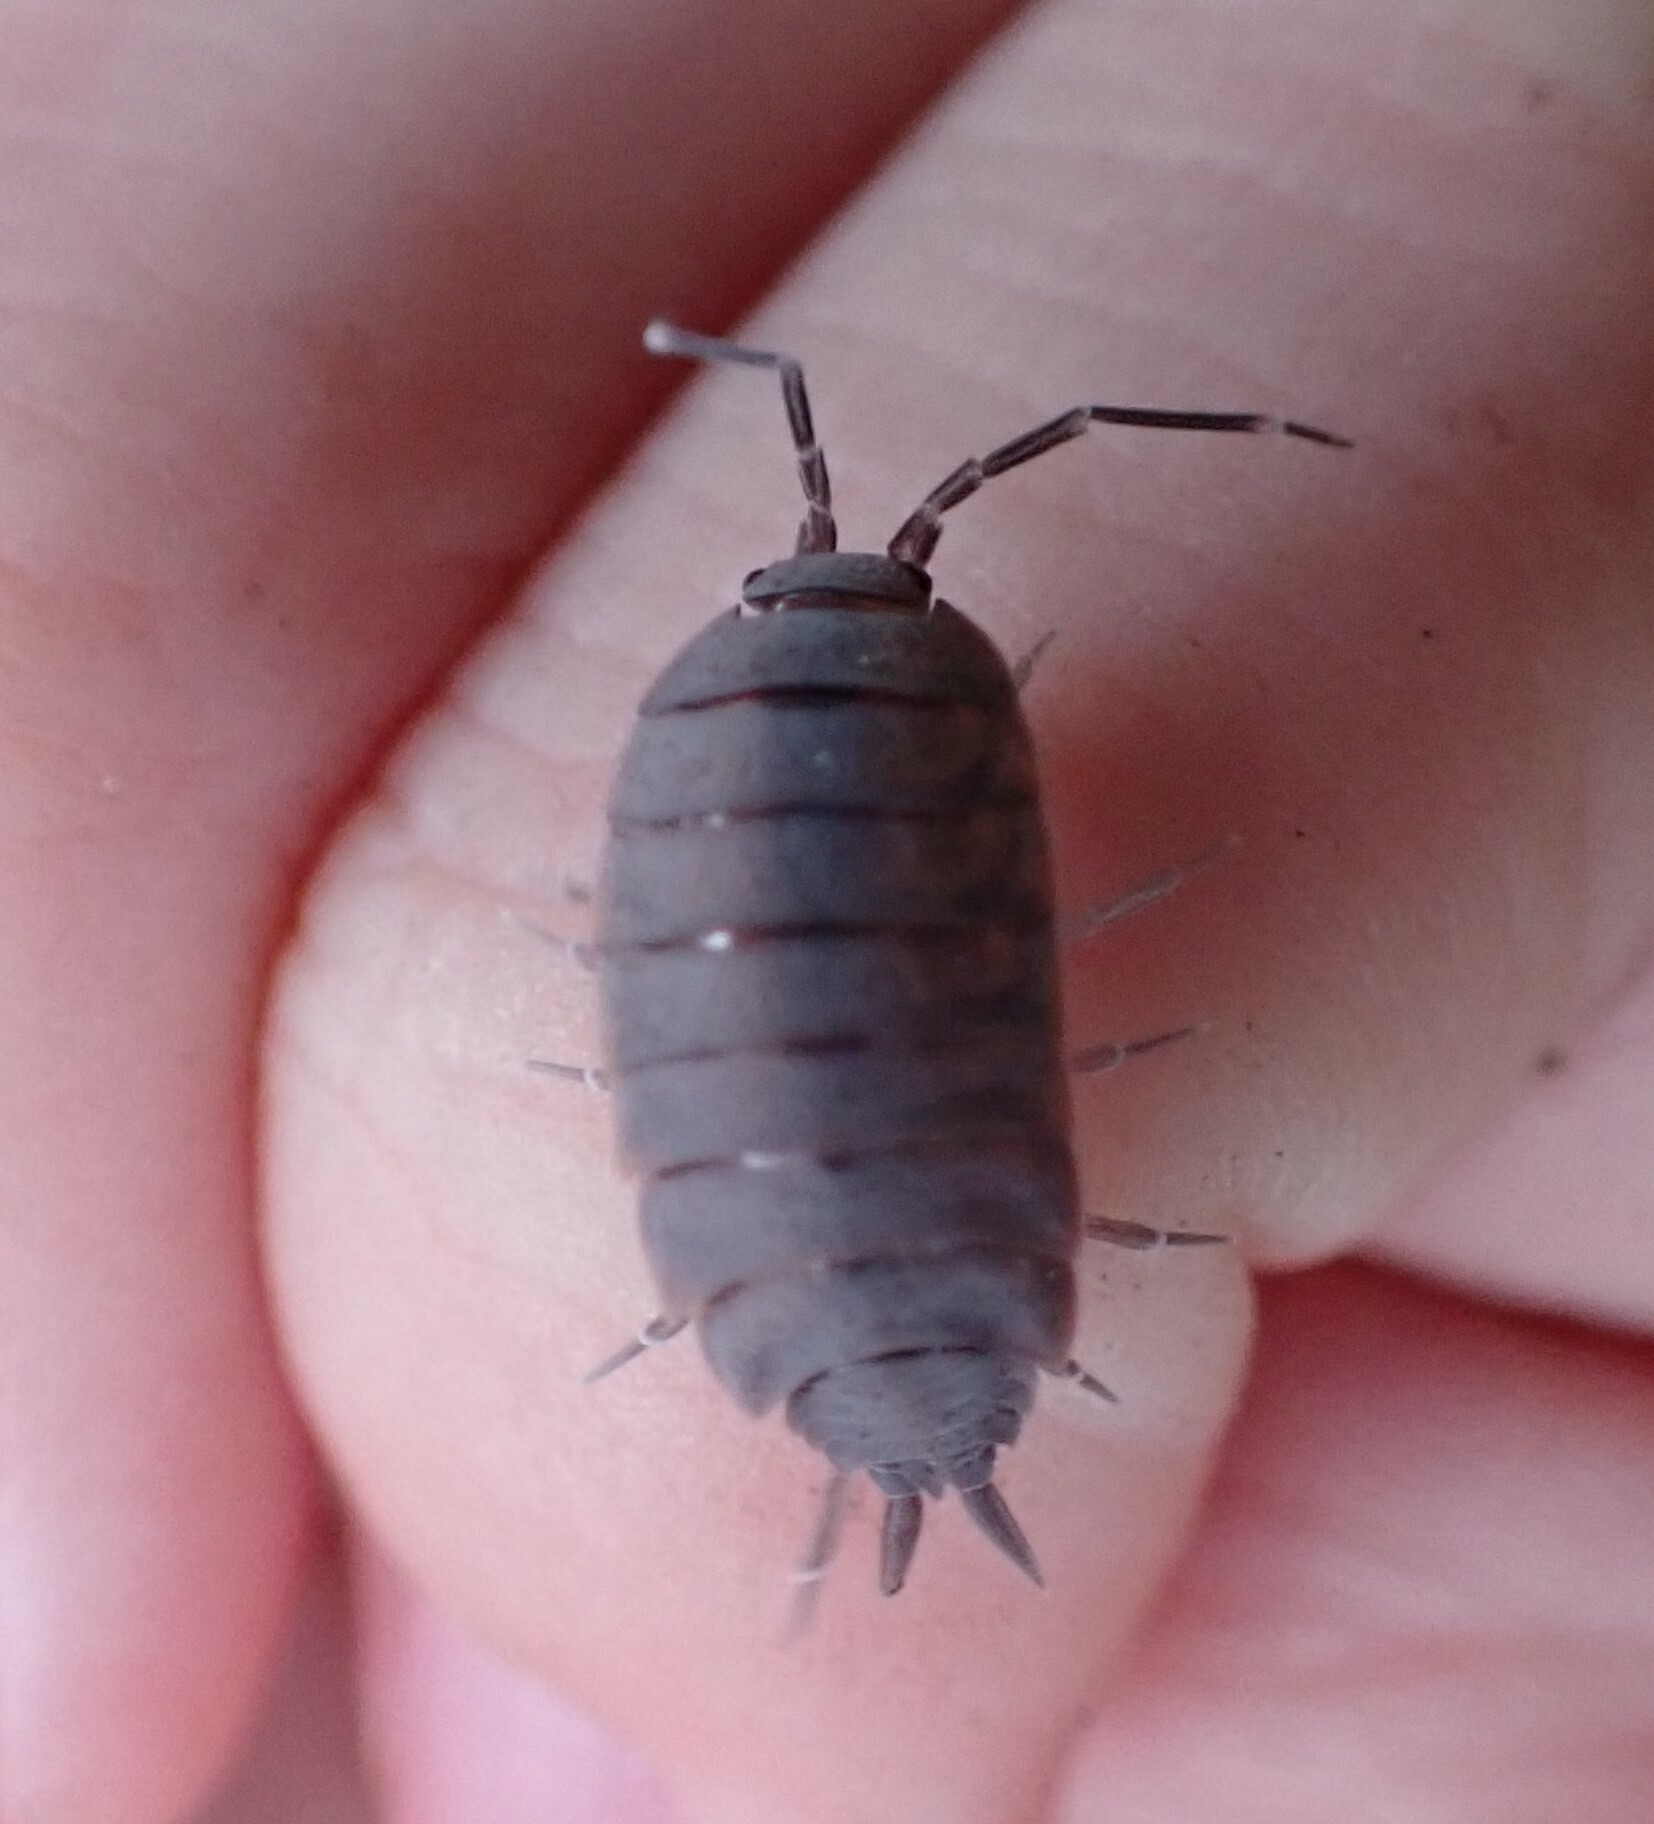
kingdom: Animalia
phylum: Arthropoda
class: Malacostraca
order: Isopoda
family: Porcellionidae
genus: Porcellionides
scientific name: Porcellionides
